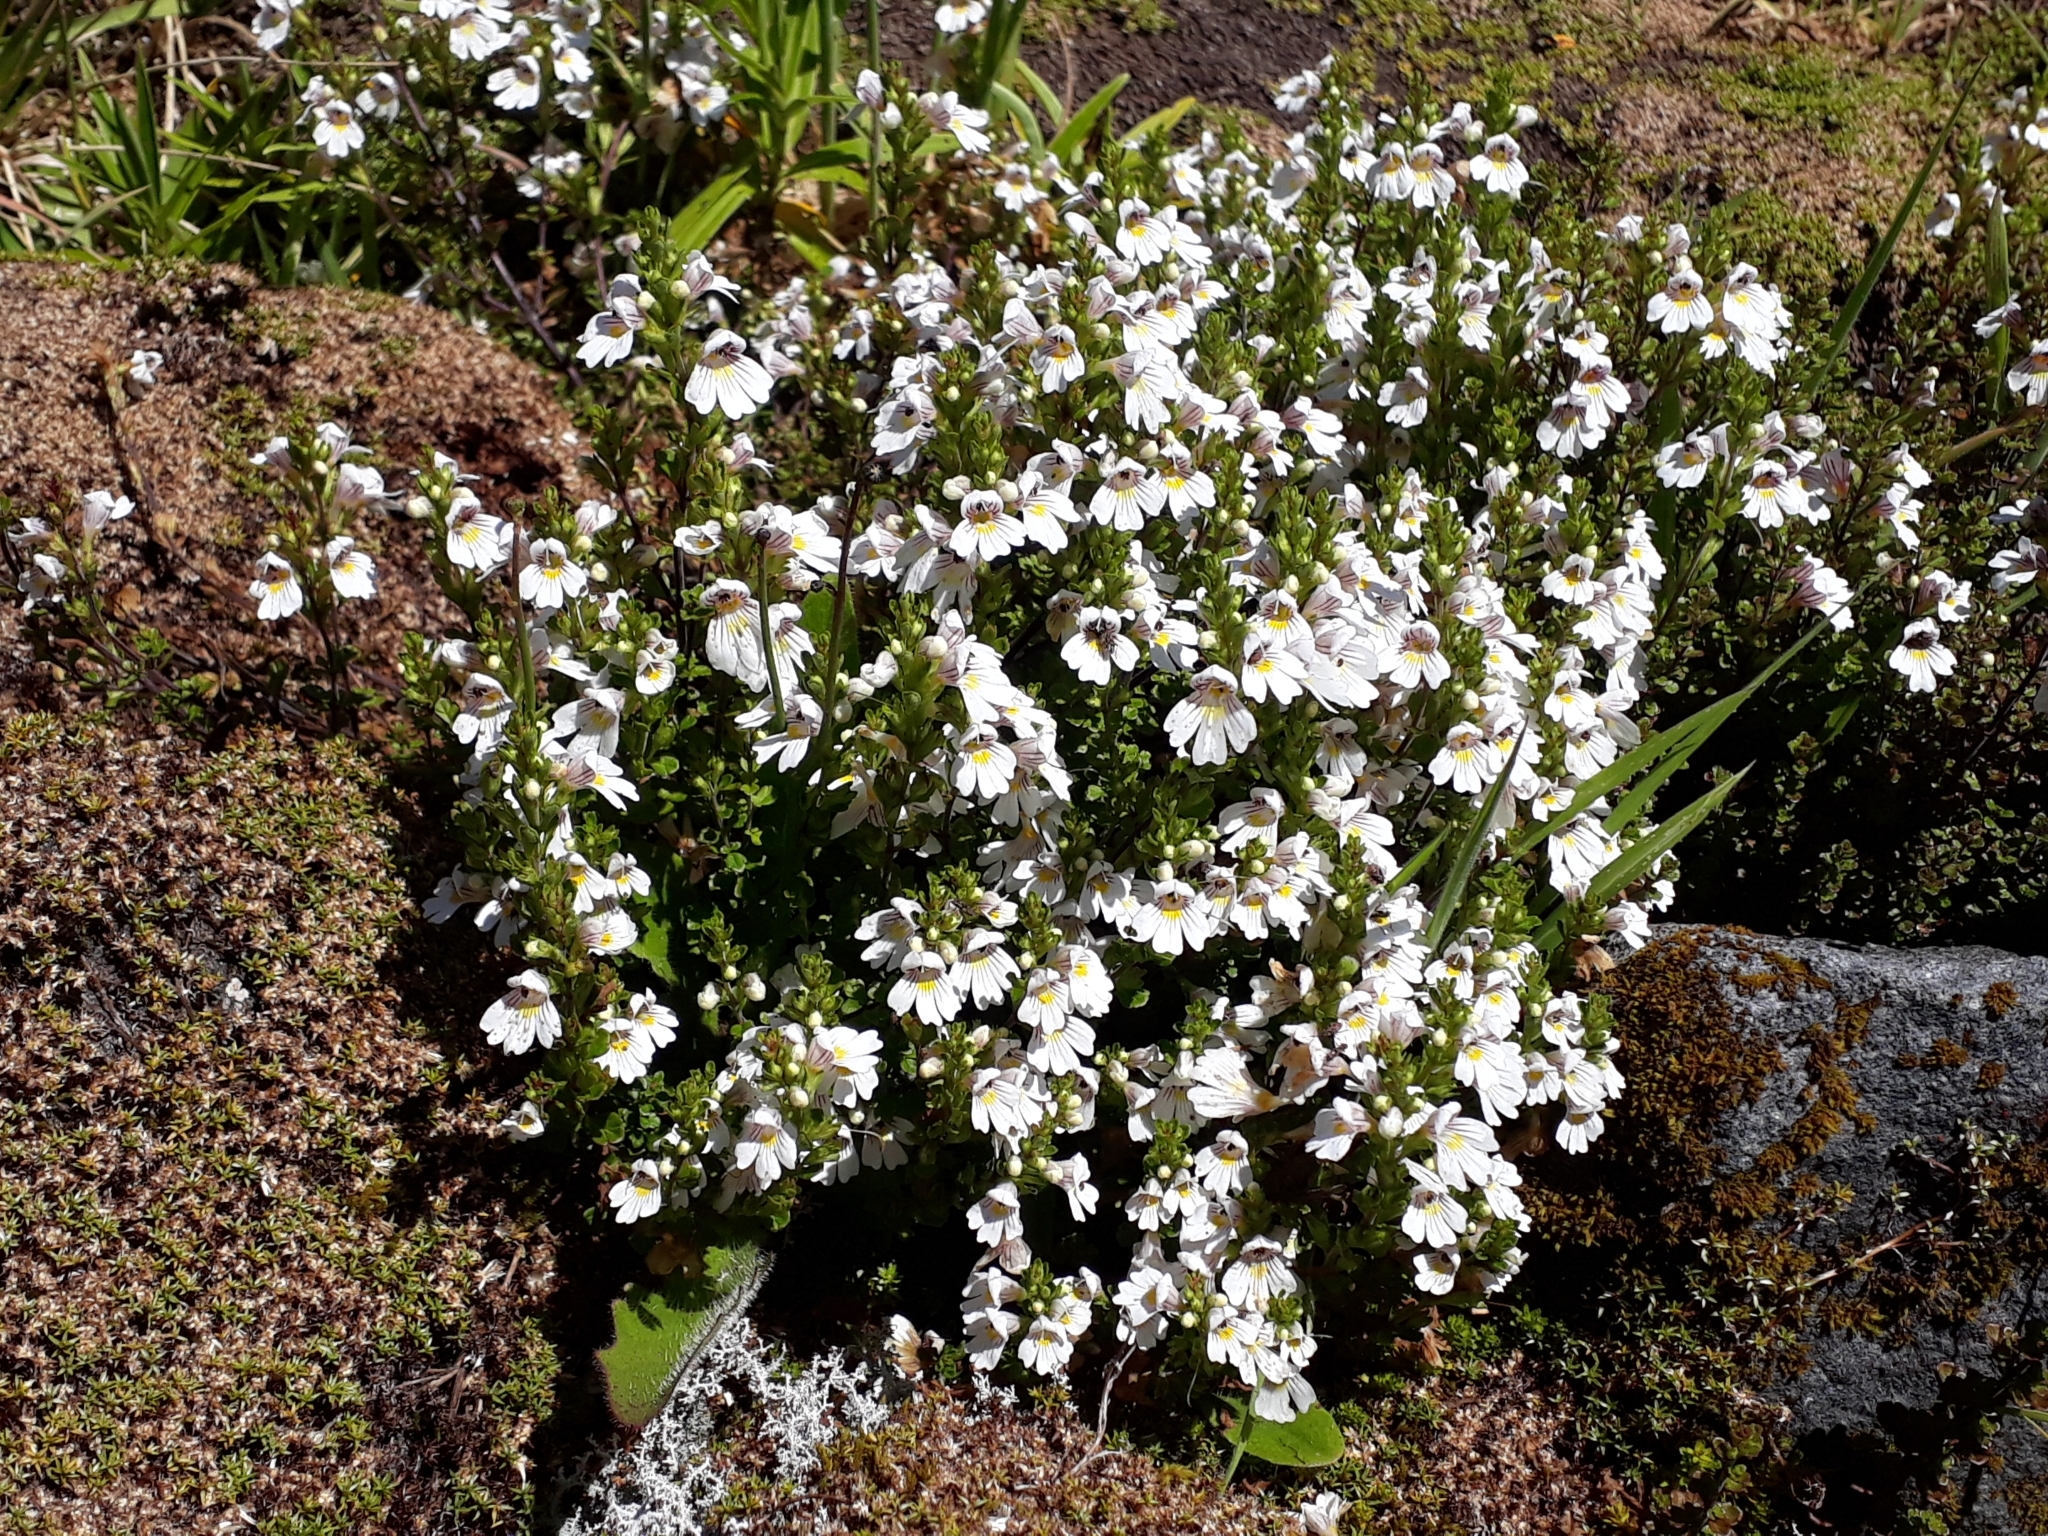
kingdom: Plantae
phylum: Tracheophyta
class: Magnoliopsida
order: Lamiales
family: Orobanchaceae
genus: Euphrasia
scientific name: Euphrasia cuneata
